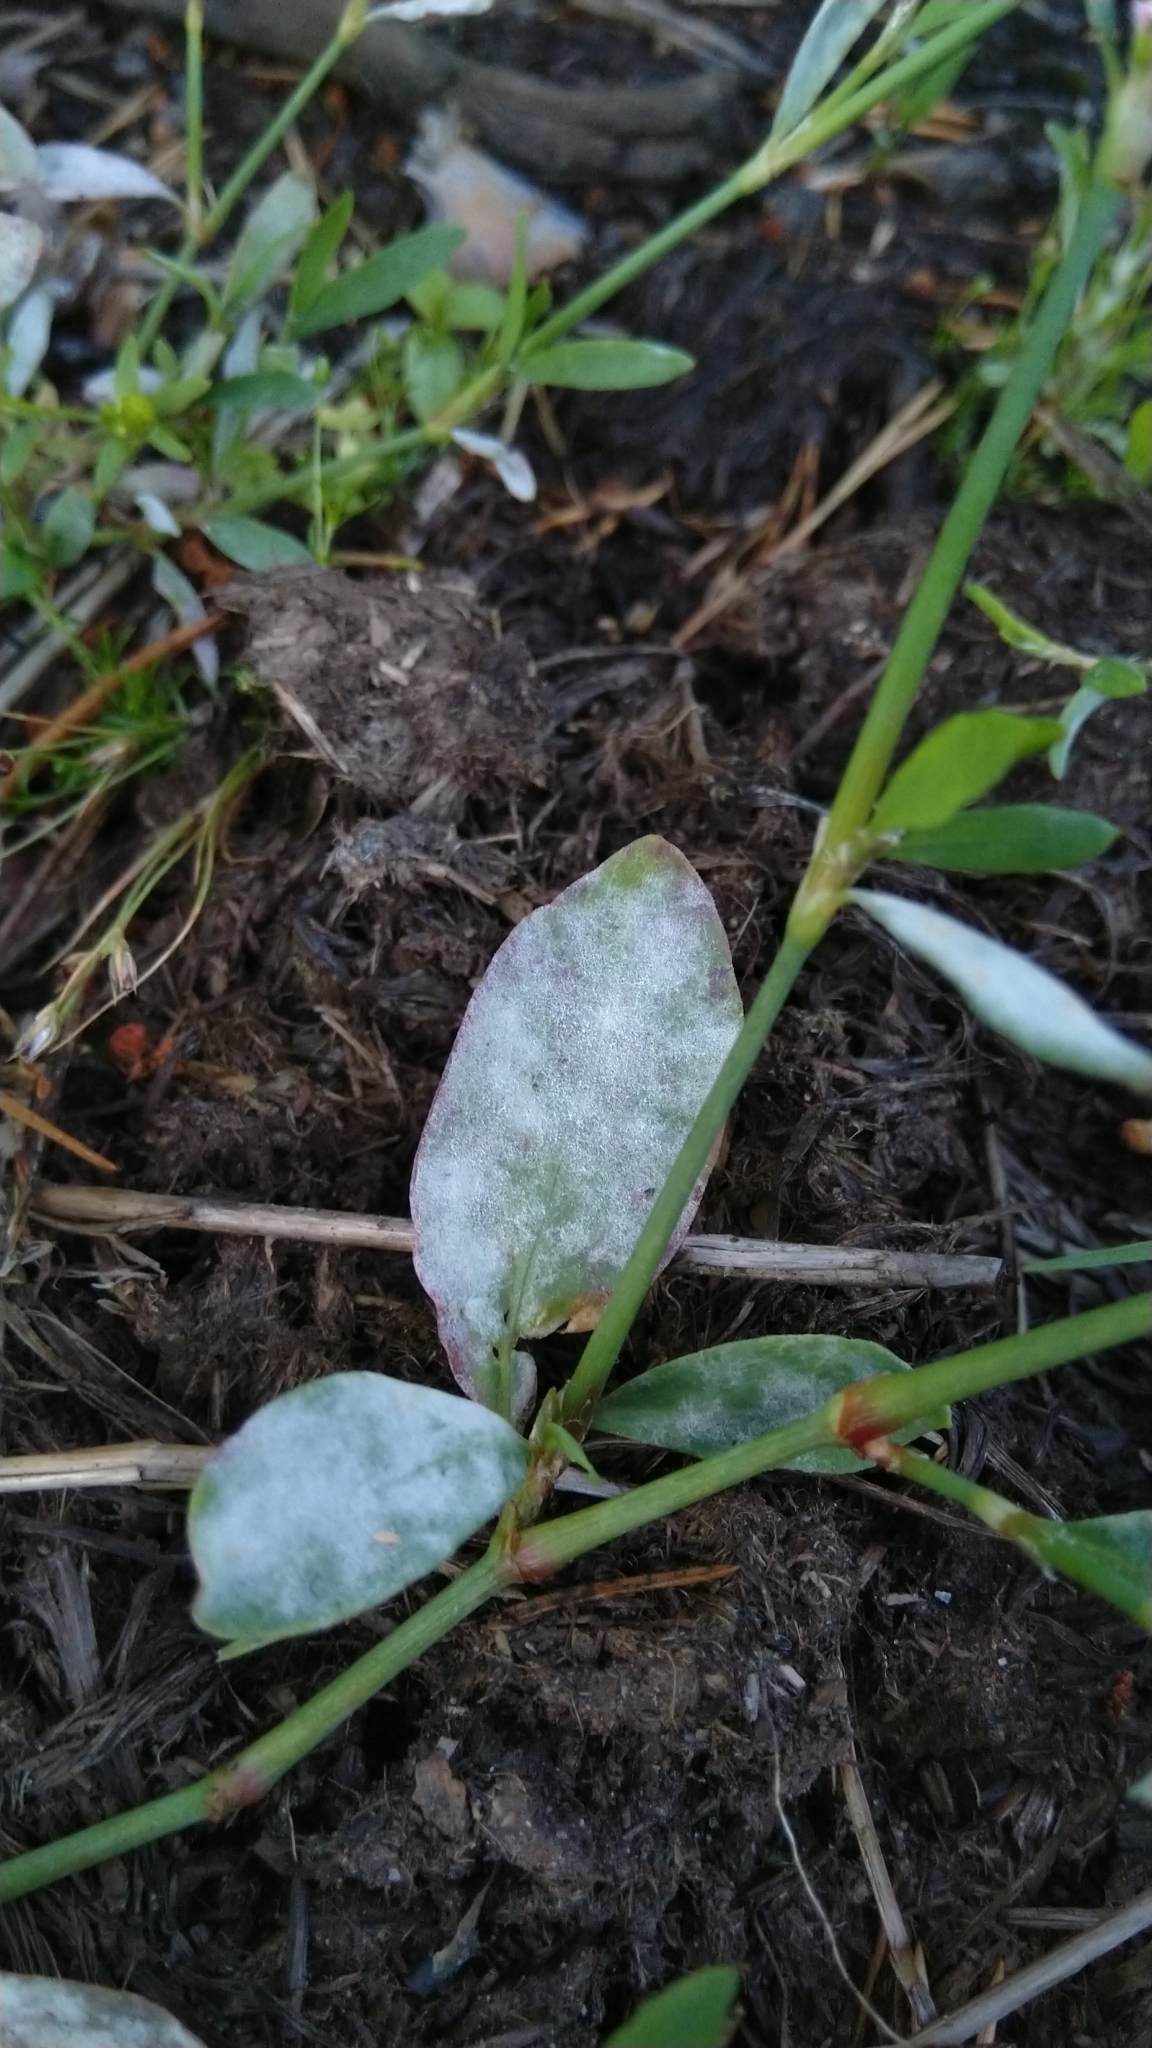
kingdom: Fungi
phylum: Ascomycota
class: Leotiomycetes
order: Helotiales
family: Erysiphaceae
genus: Erysiphe
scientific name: Erysiphe polygoni
